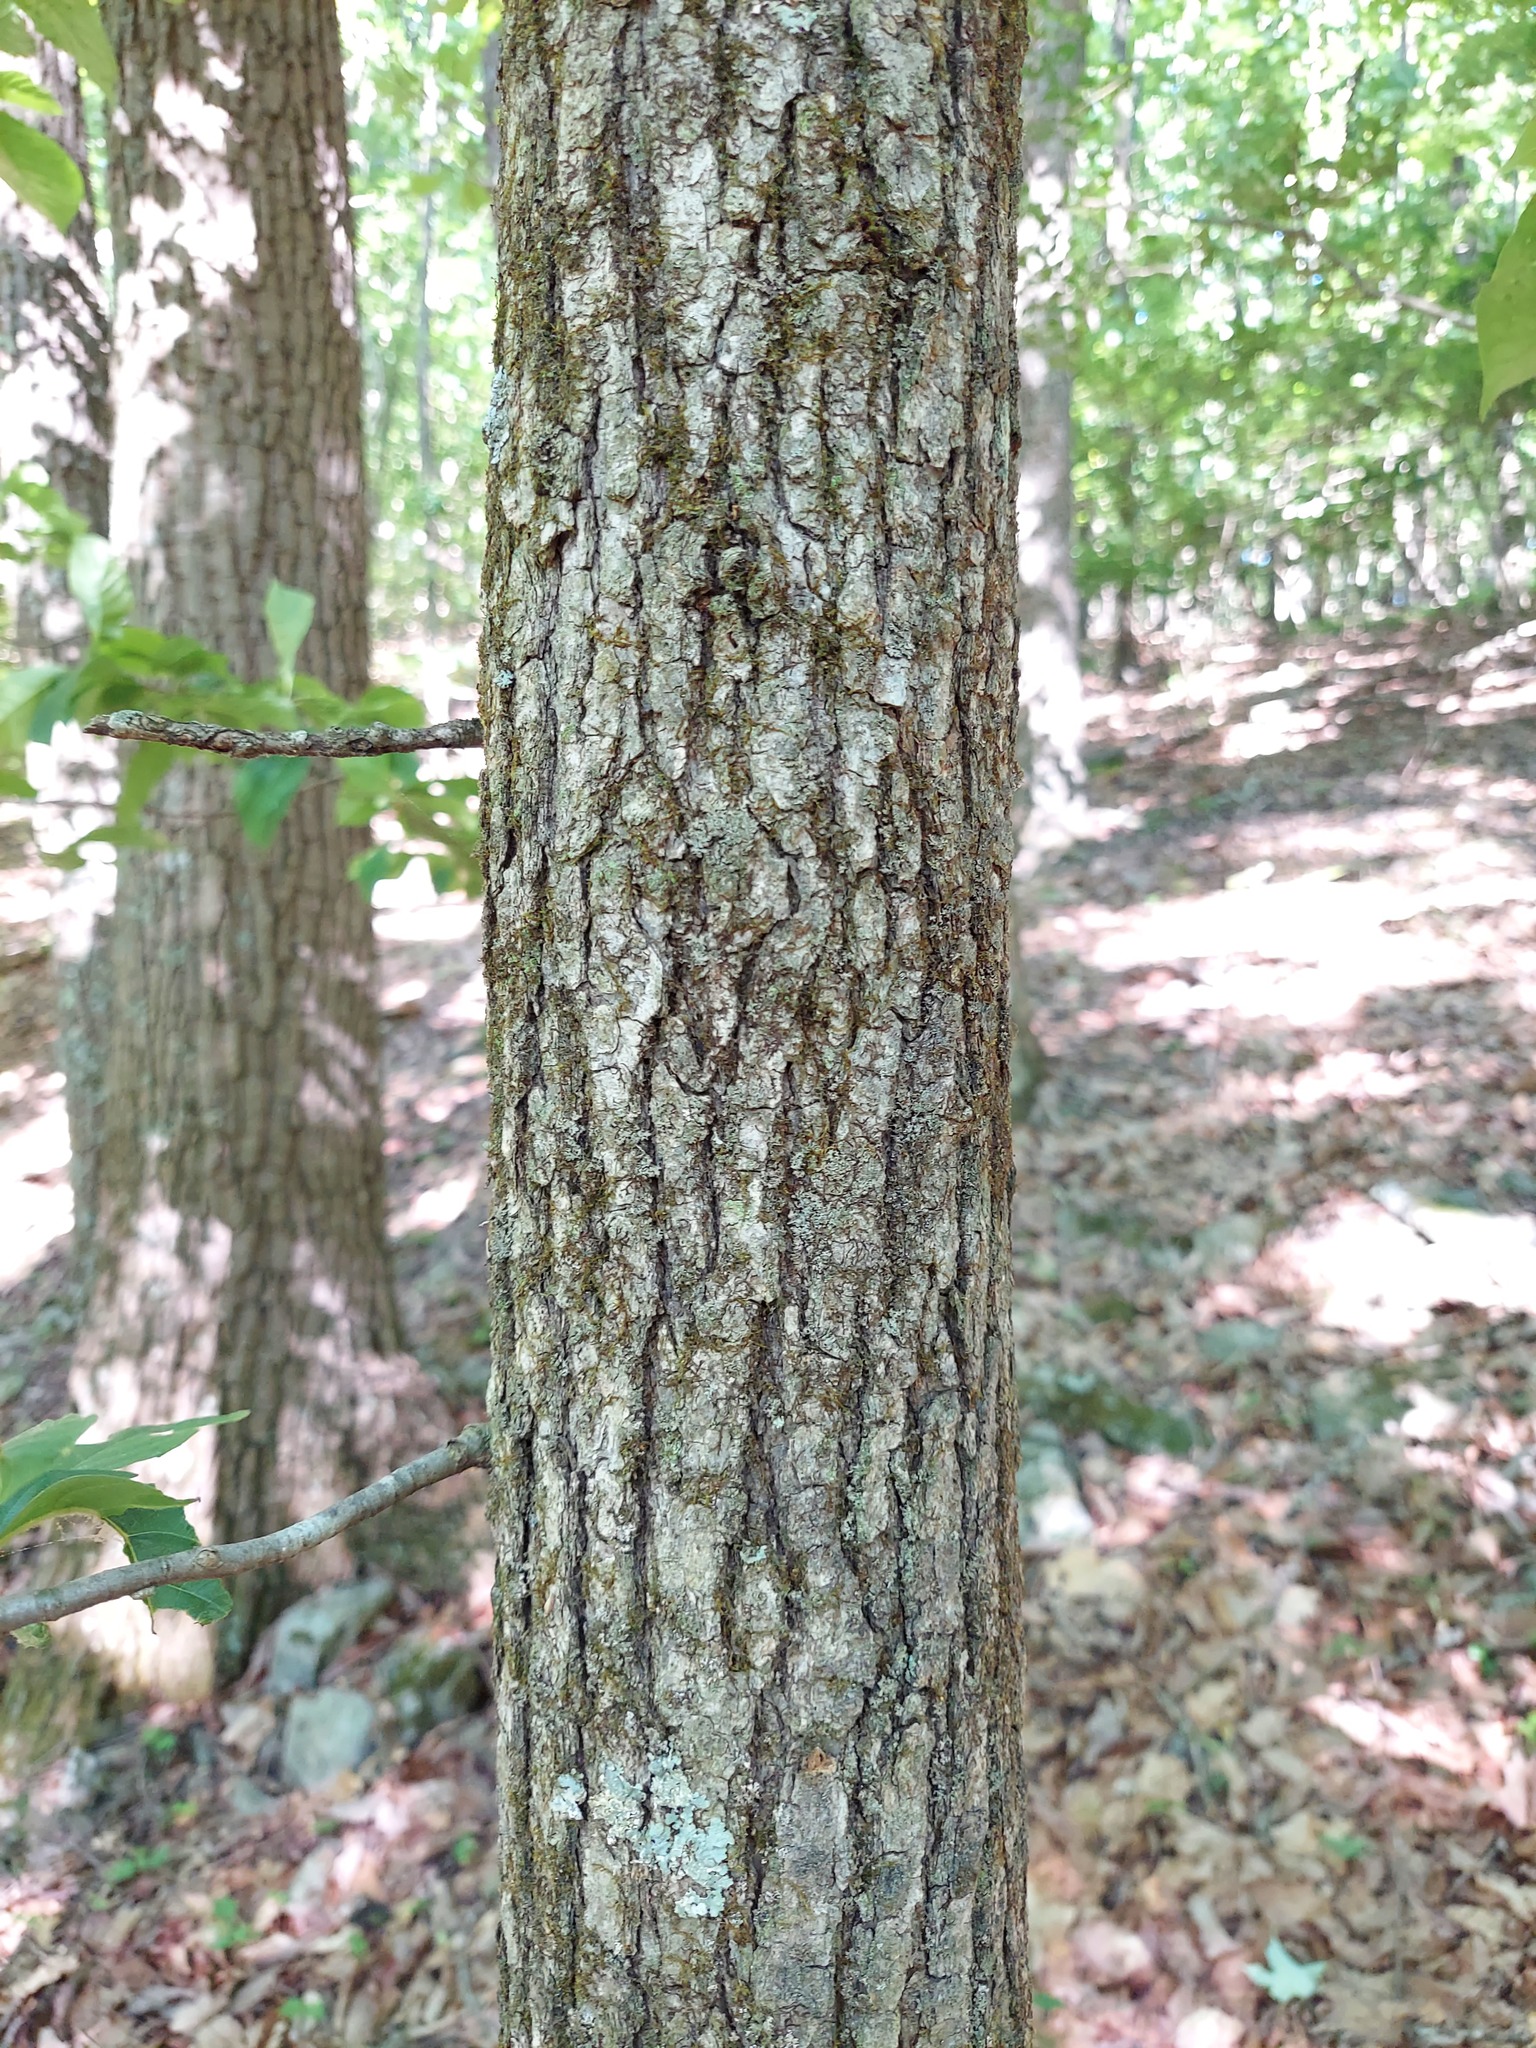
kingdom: Plantae
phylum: Tracheophyta
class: Magnoliopsida
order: Cornales
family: Nyssaceae
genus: Nyssa
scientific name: Nyssa sylvatica
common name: Black tupelo
